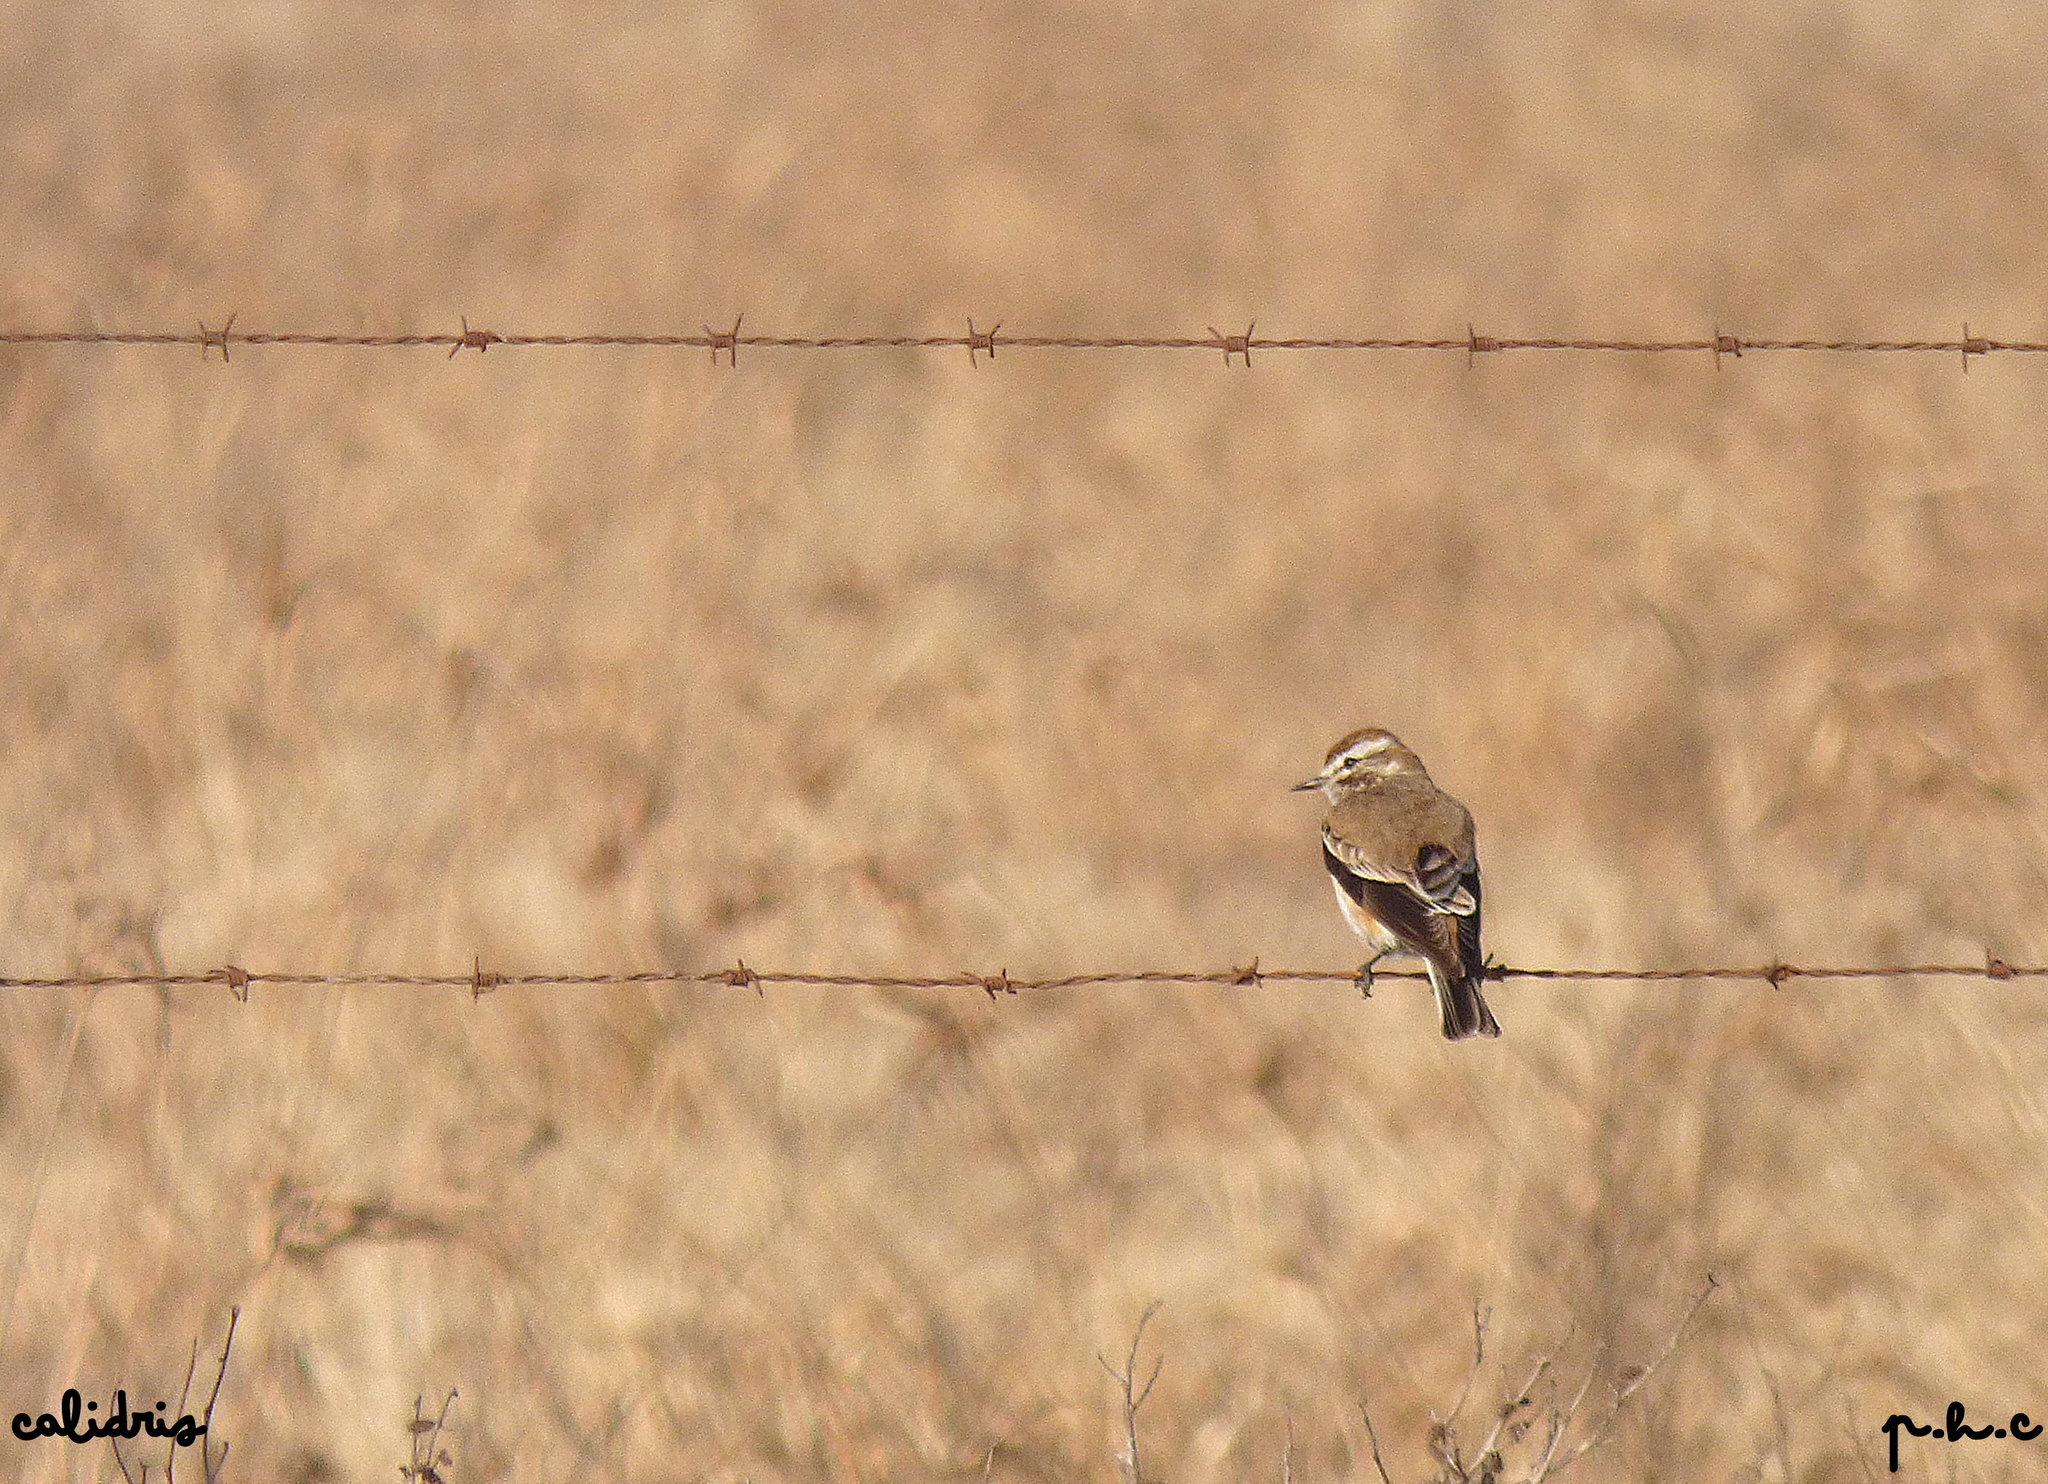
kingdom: Animalia
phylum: Chordata
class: Aves
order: Passeriformes
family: Tyrannidae
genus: Xolmis
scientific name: Xolmis rubetra
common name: Rusty-backed monjita
